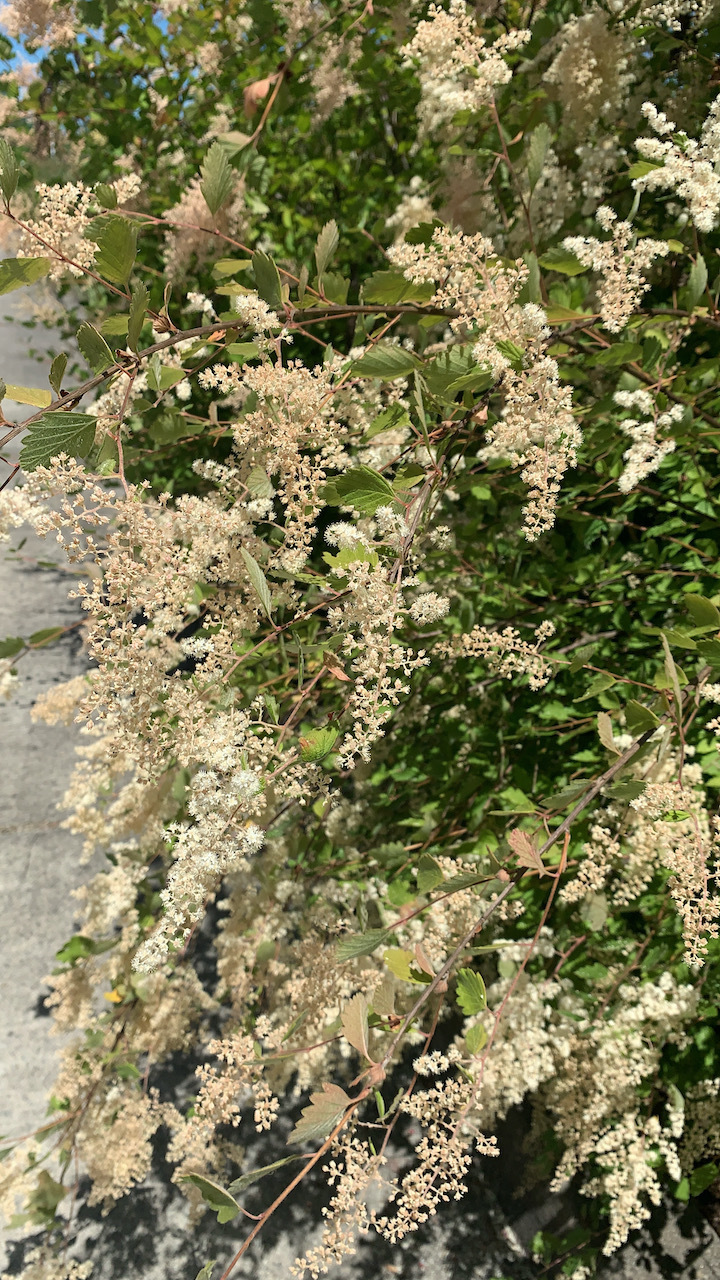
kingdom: Plantae
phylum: Tracheophyta
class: Magnoliopsida
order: Rosales
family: Rosaceae
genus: Holodiscus
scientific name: Holodiscus discolor
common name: Oceanspray
